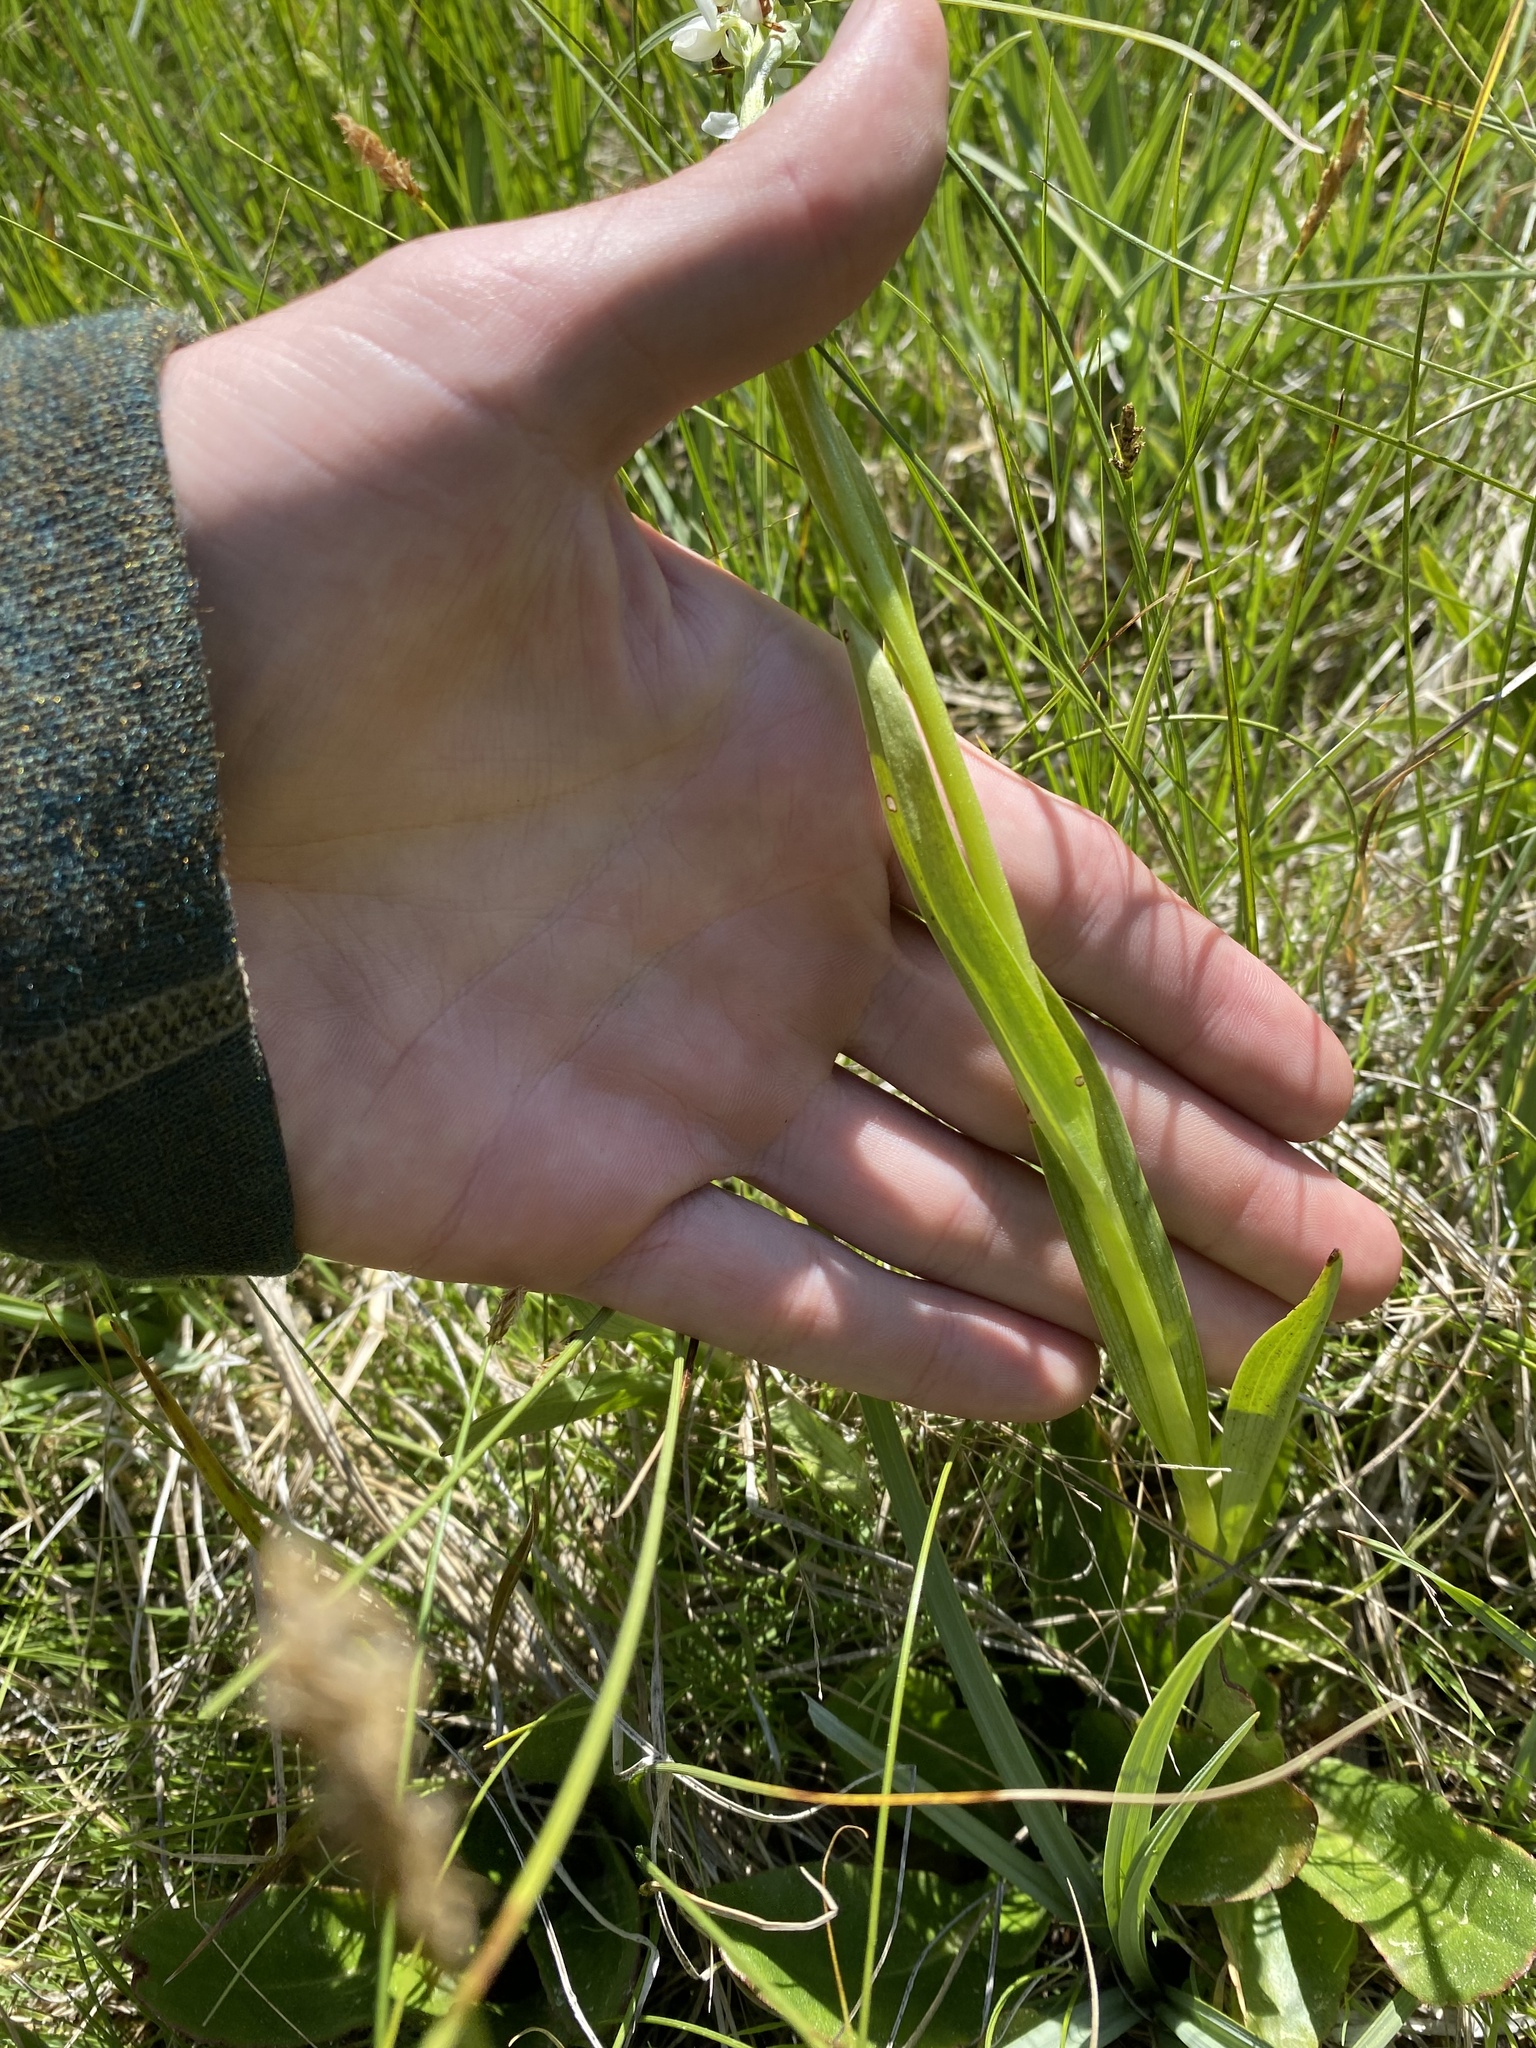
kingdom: Plantae
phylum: Tracheophyta
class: Liliopsida
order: Asparagales
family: Orchidaceae
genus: Platanthera
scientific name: Platanthera dilatata
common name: Bog candles
